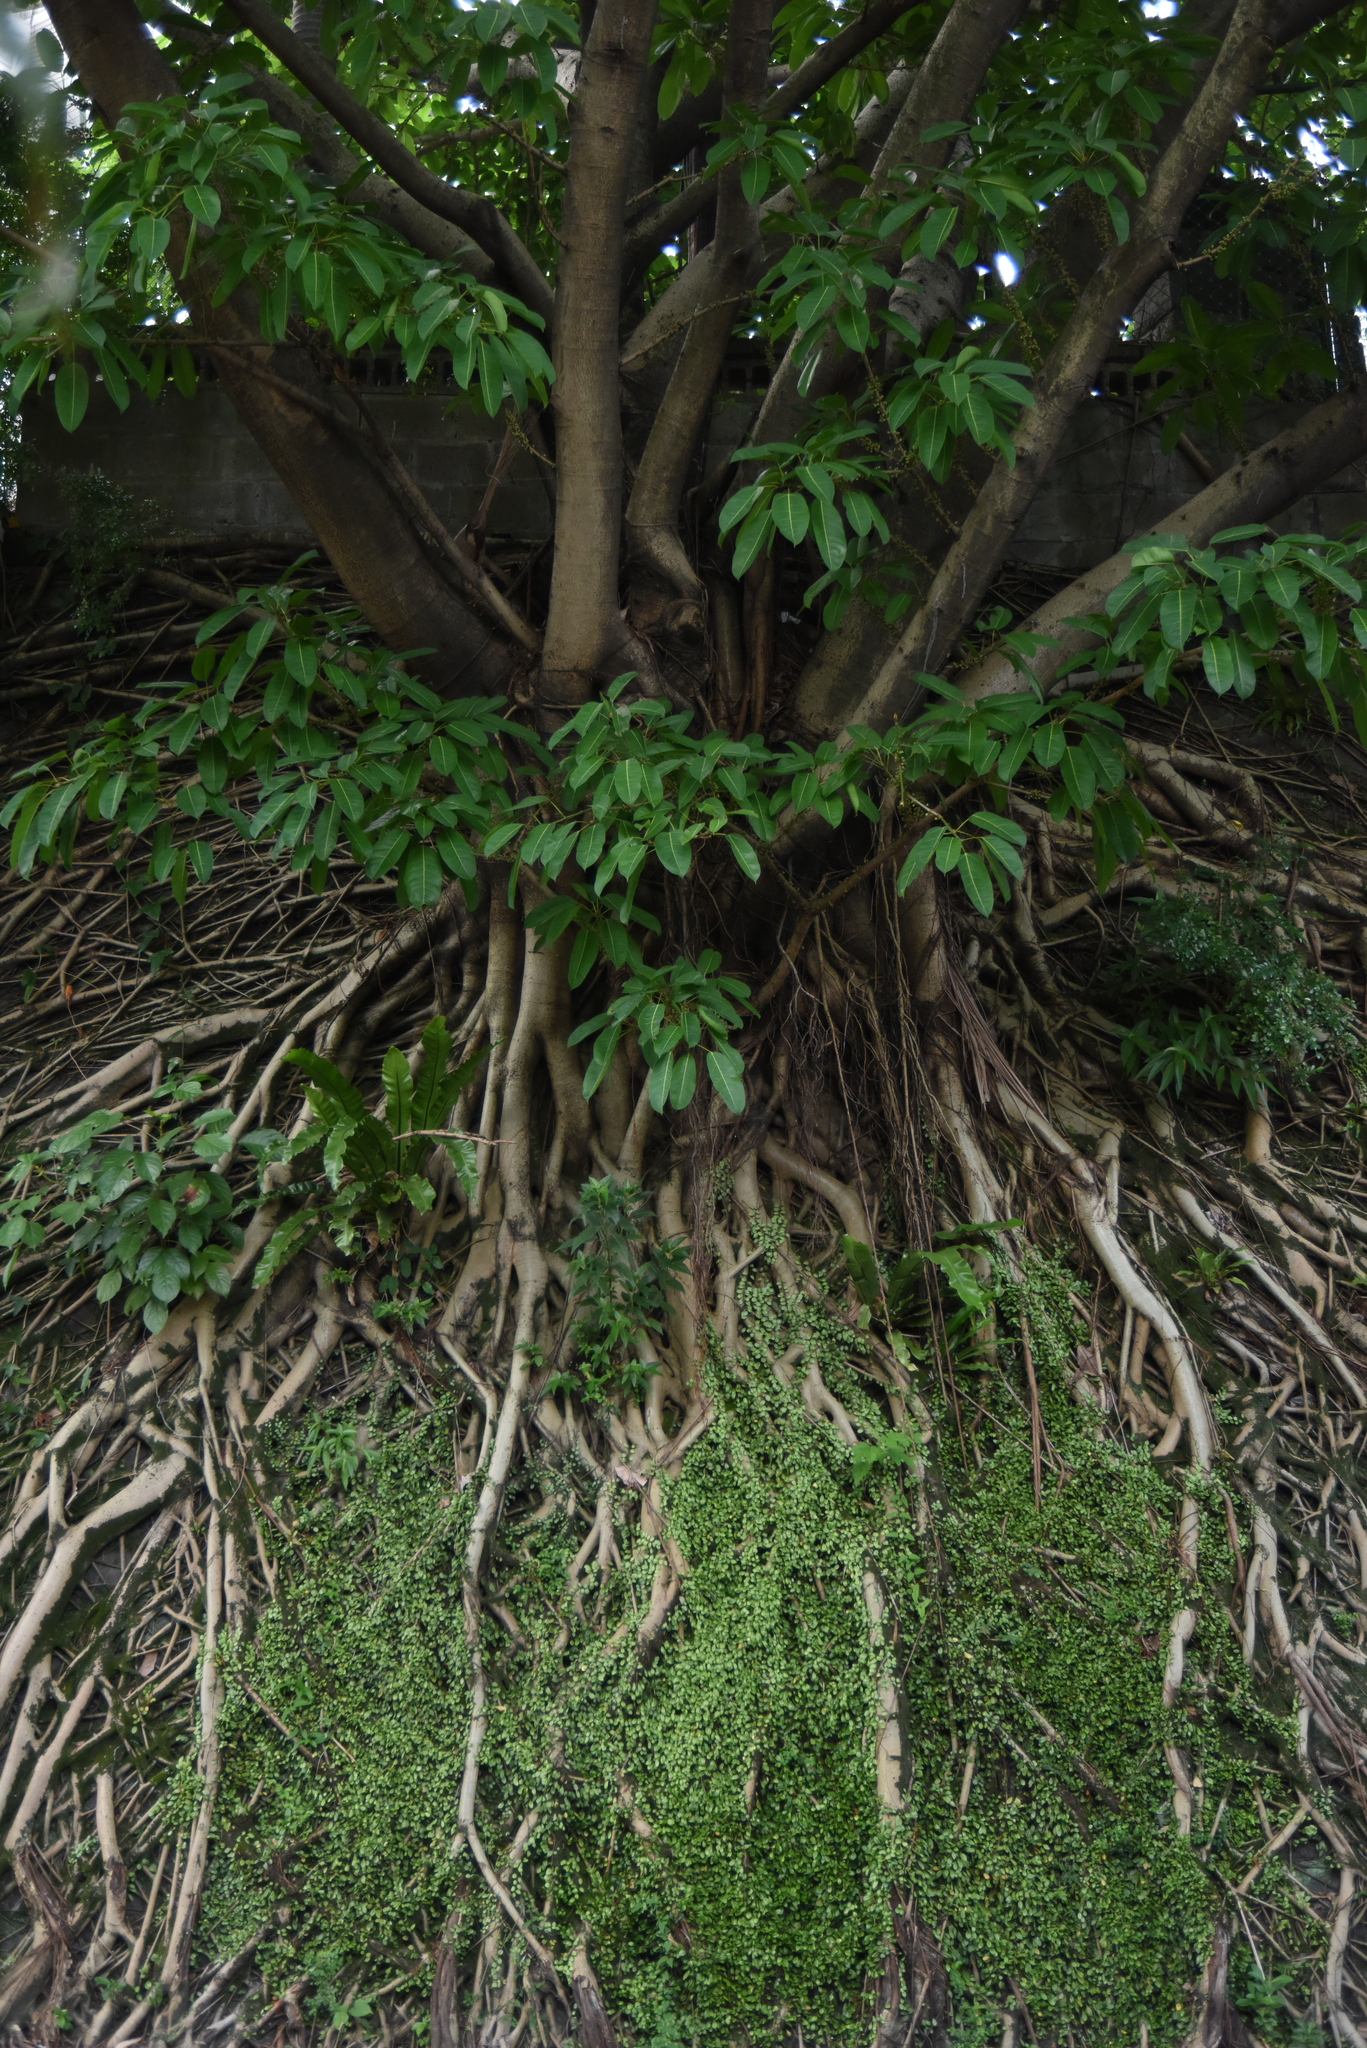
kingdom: Plantae
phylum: Tracheophyta
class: Magnoliopsida
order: Rosales
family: Moraceae
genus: Ficus
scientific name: Ficus subpisocarpa
